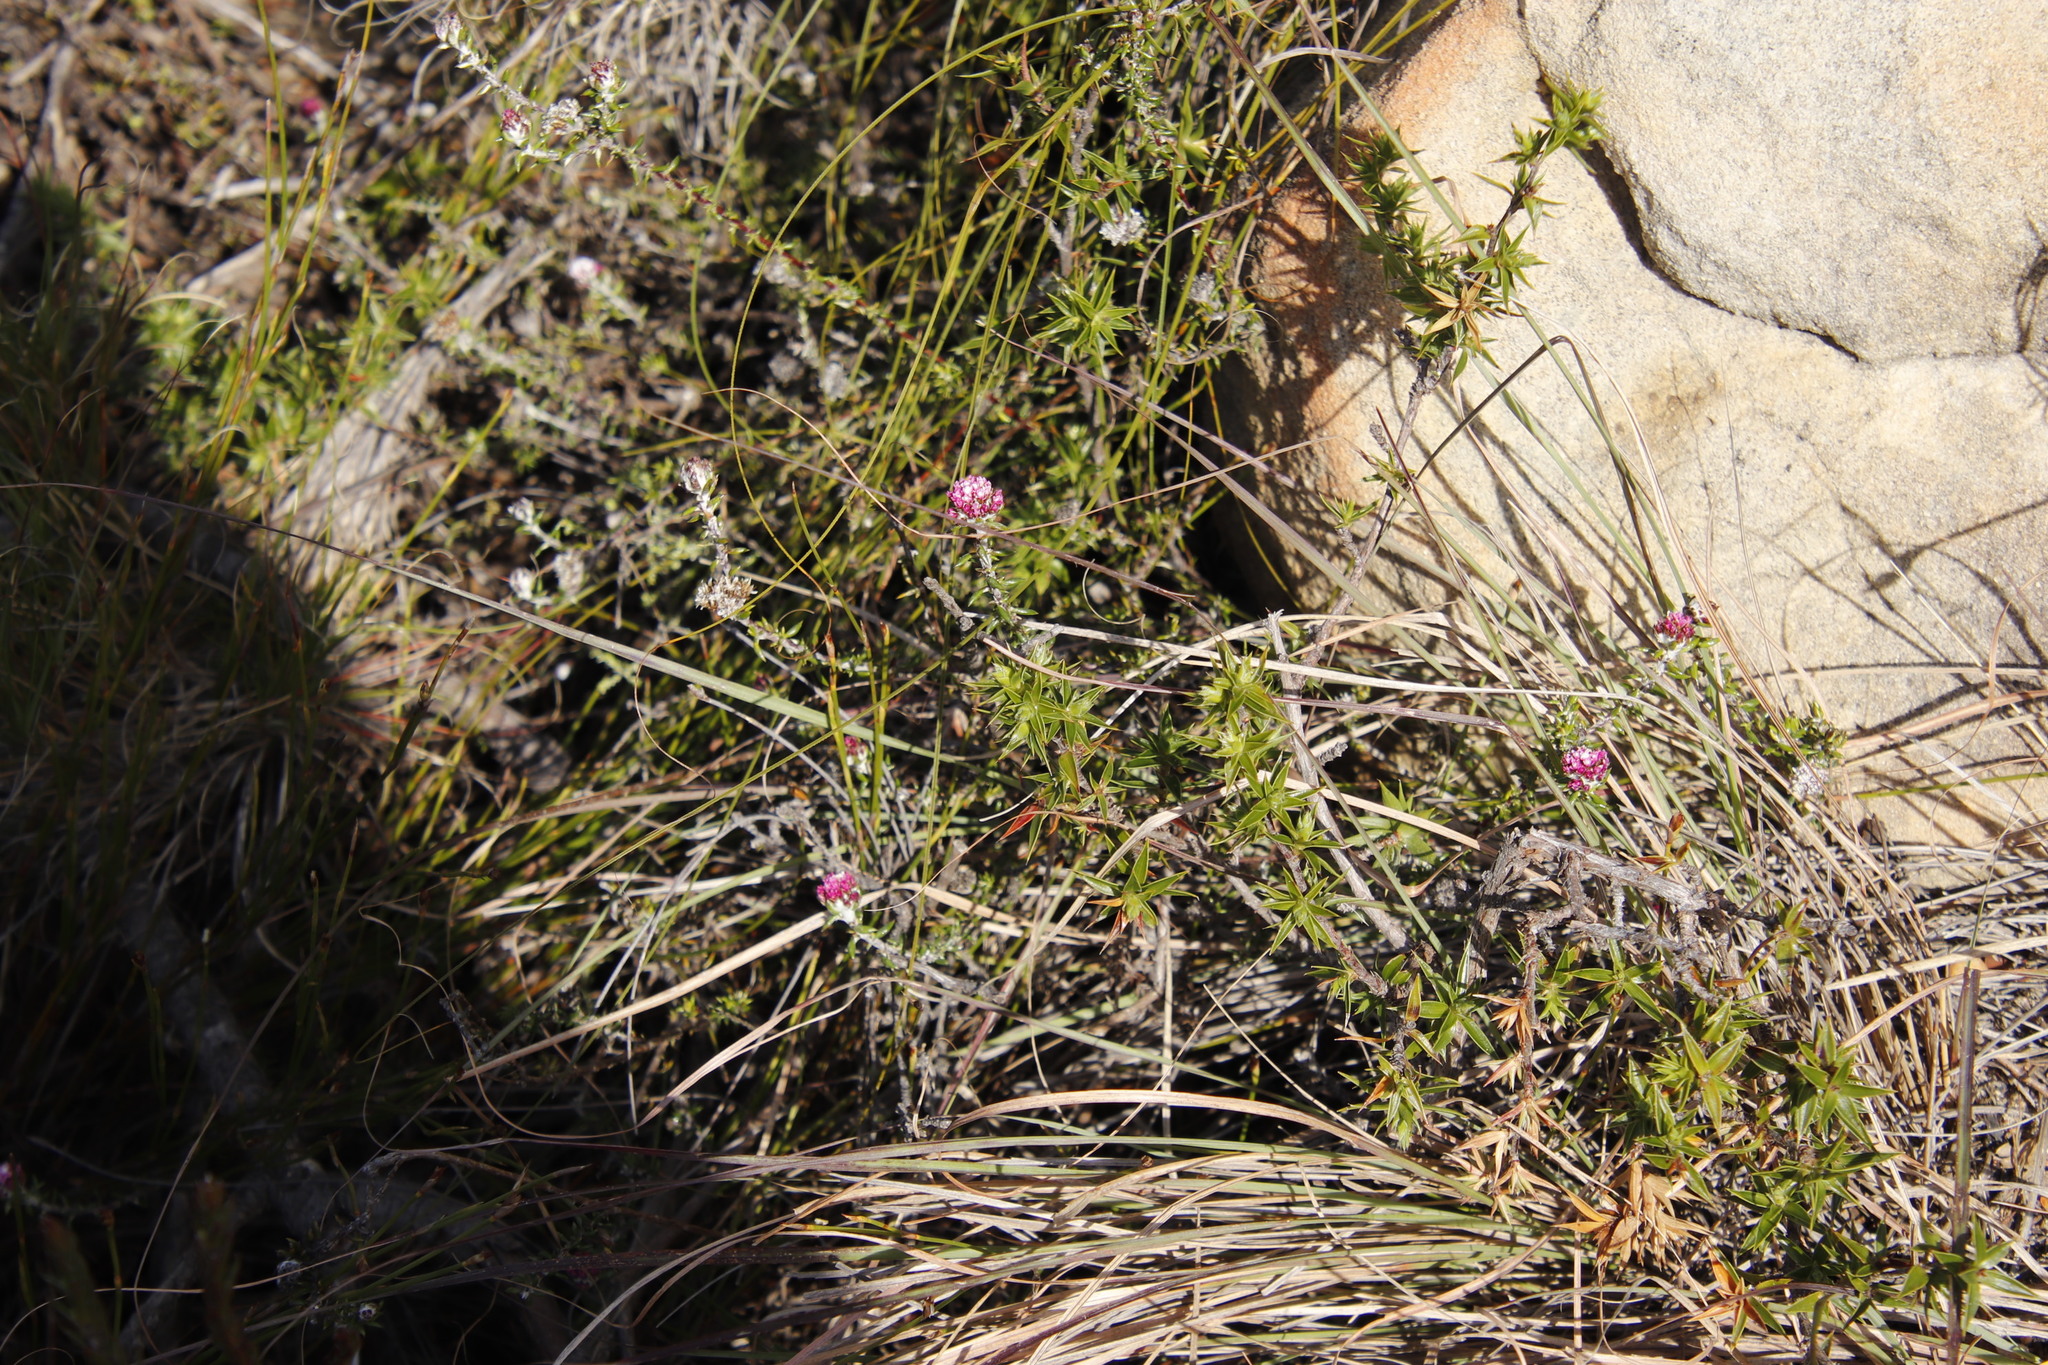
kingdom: Plantae
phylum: Tracheophyta
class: Magnoliopsida
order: Asterales
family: Asteraceae
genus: Metalasia
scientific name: Metalasia divergens
